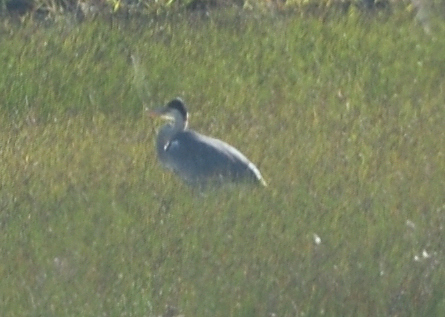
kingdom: Animalia
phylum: Chordata
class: Aves
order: Pelecaniformes
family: Ardeidae
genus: Ardea
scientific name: Ardea cocoi
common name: Cocoi heron
